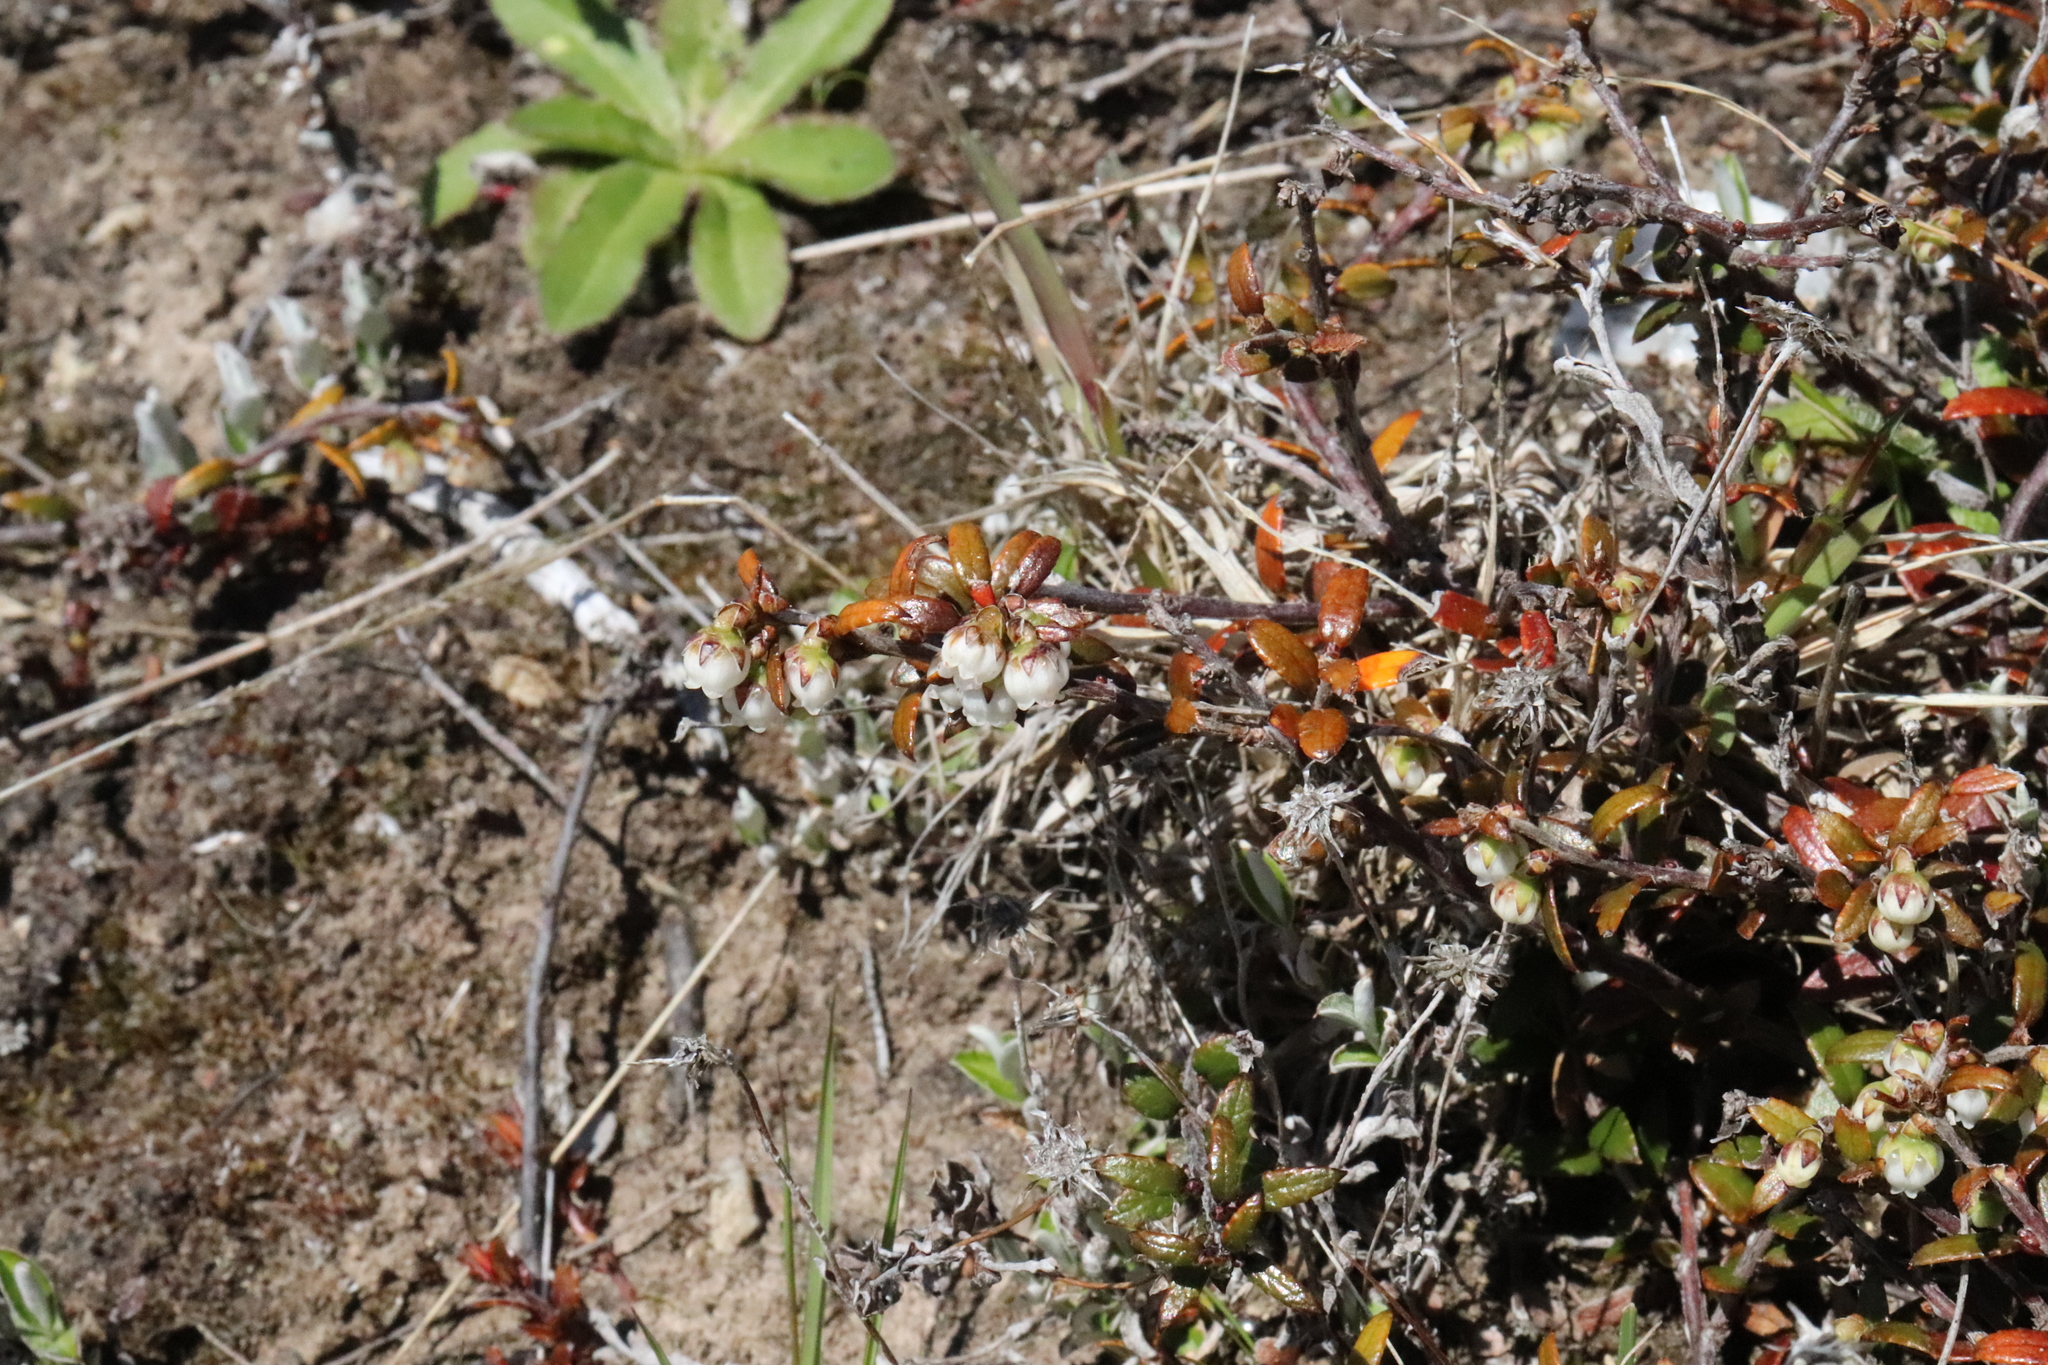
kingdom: Plantae
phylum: Tracheophyta
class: Magnoliopsida
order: Ericales
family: Ericaceae
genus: Gaultheria
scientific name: Gaultheria macrostigma
